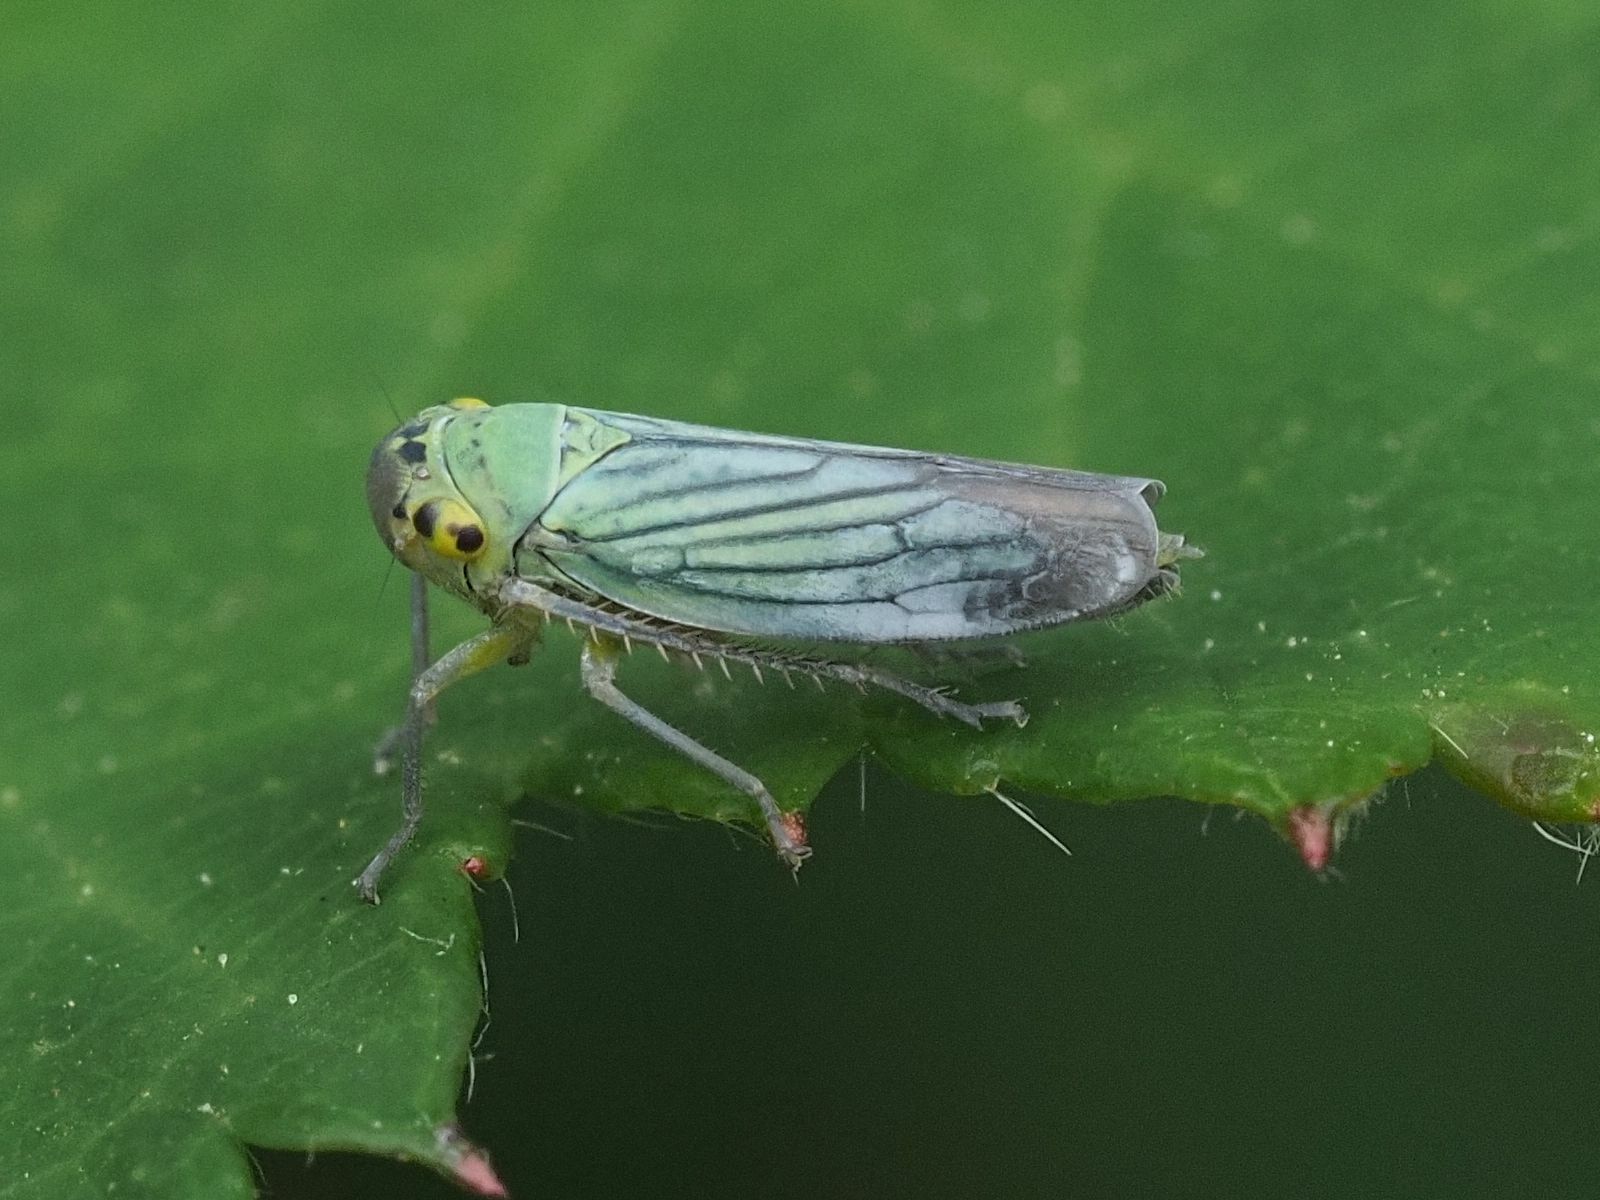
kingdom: Animalia
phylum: Arthropoda
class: Insecta
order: Hemiptera
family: Cicadellidae
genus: Cicadella
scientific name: Cicadella viridis
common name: Leafhopper
